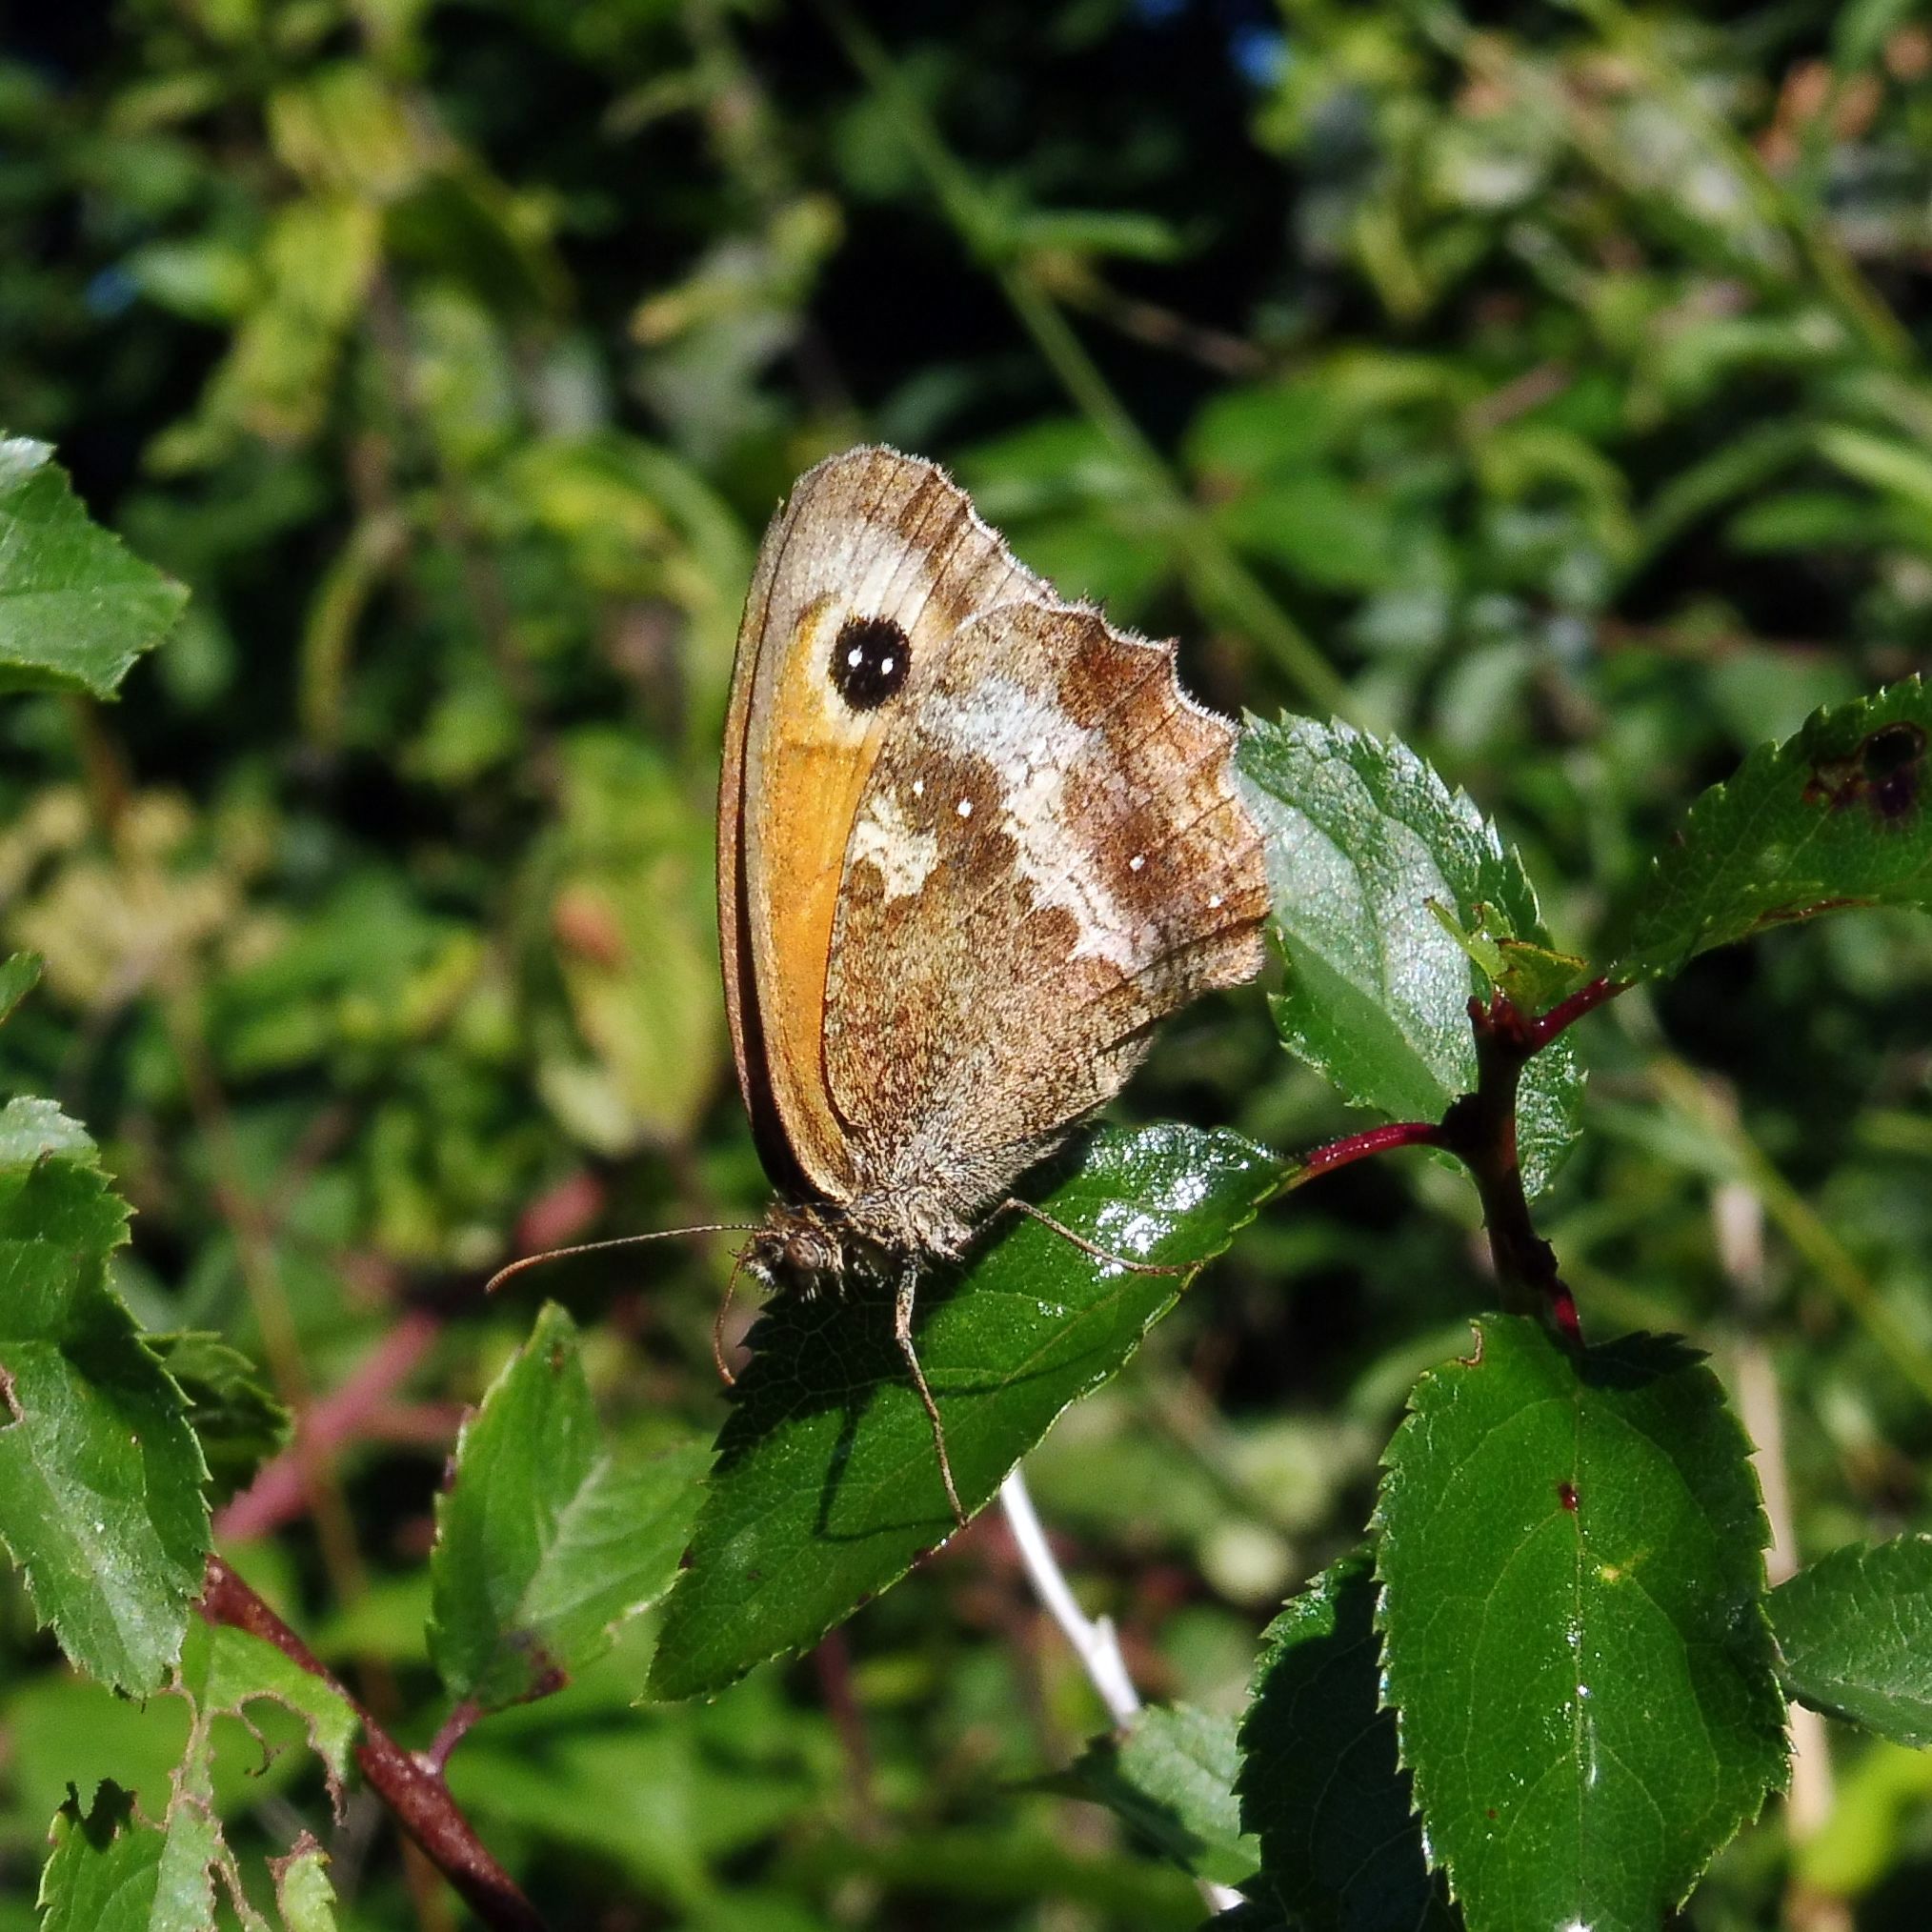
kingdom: Animalia
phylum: Arthropoda
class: Insecta
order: Lepidoptera
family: Nymphalidae
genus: Pyronia
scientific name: Pyronia tithonus
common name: Gatekeeper
